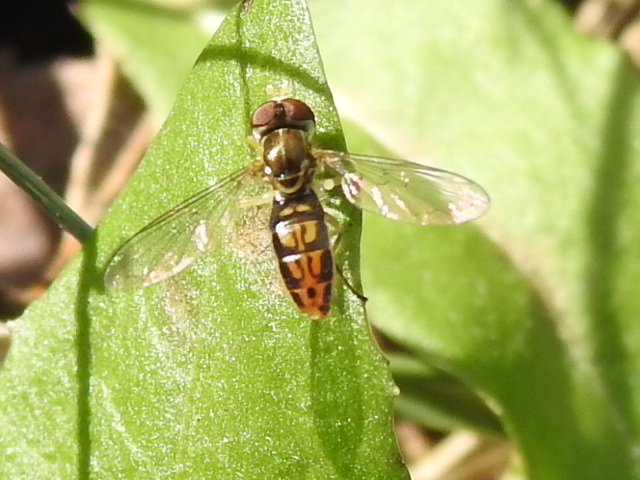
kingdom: Animalia
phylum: Arthropoda
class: Insecta
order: Diptera
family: Syrphidae
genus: Toxomerus
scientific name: Toxomerus marginatus
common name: Syrphid fly
